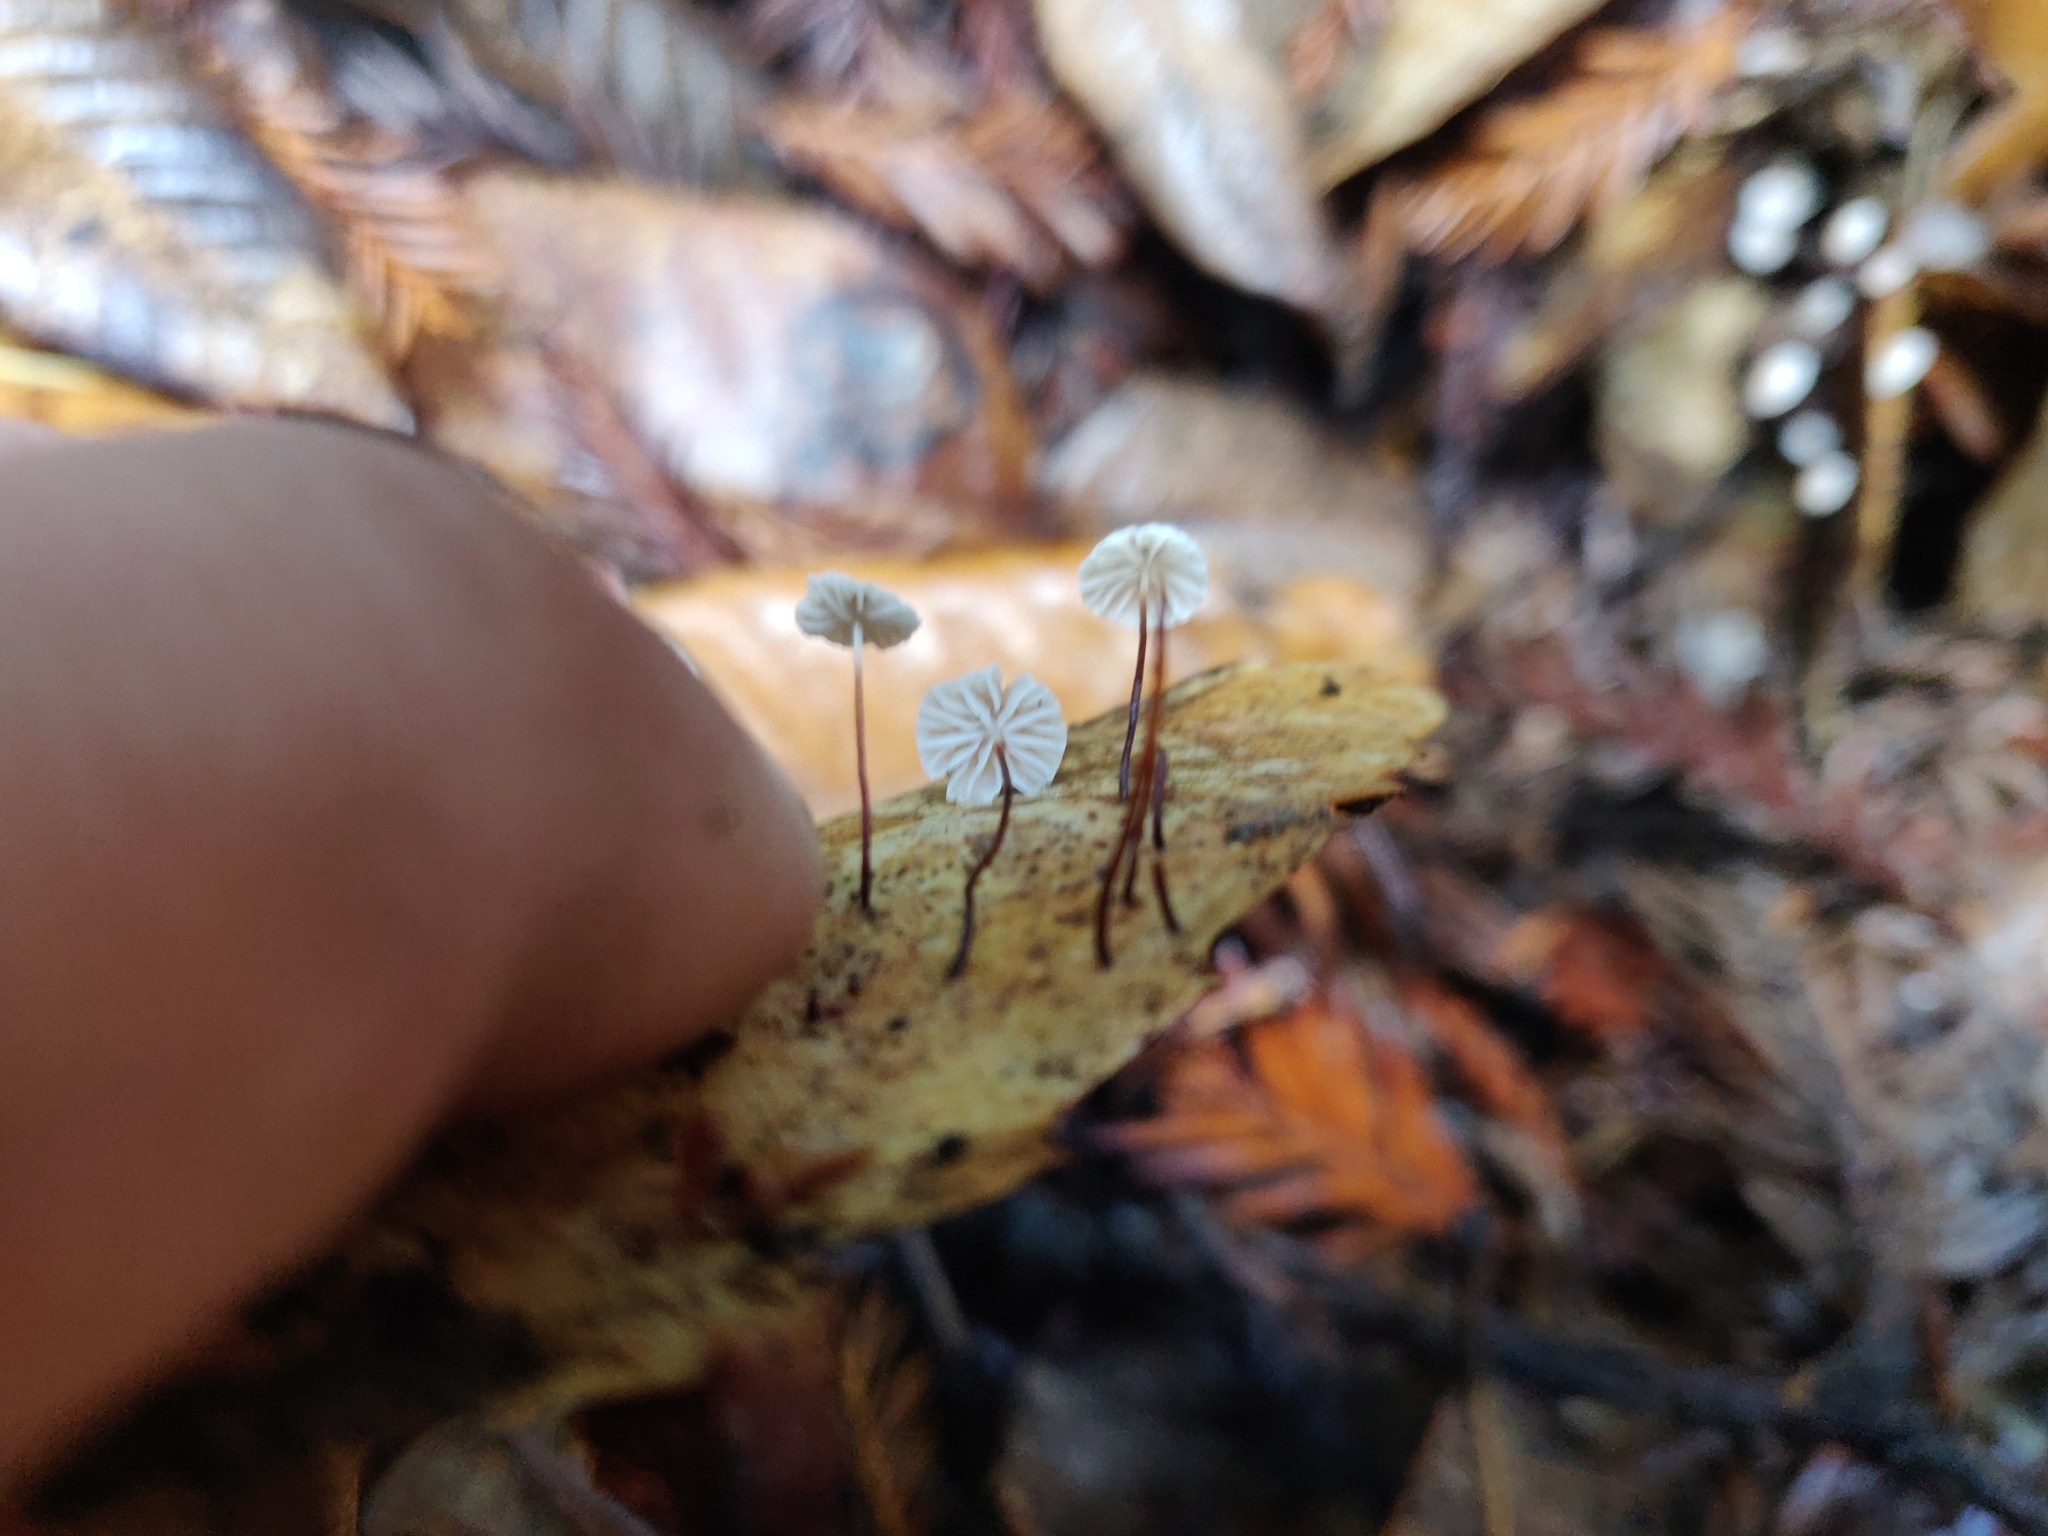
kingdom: Fungi
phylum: Basidiomycota
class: Agaricomycetes
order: Agaricales
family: Omphalotaceae
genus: Collybiopsis
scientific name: Collybiopsis quercophila
